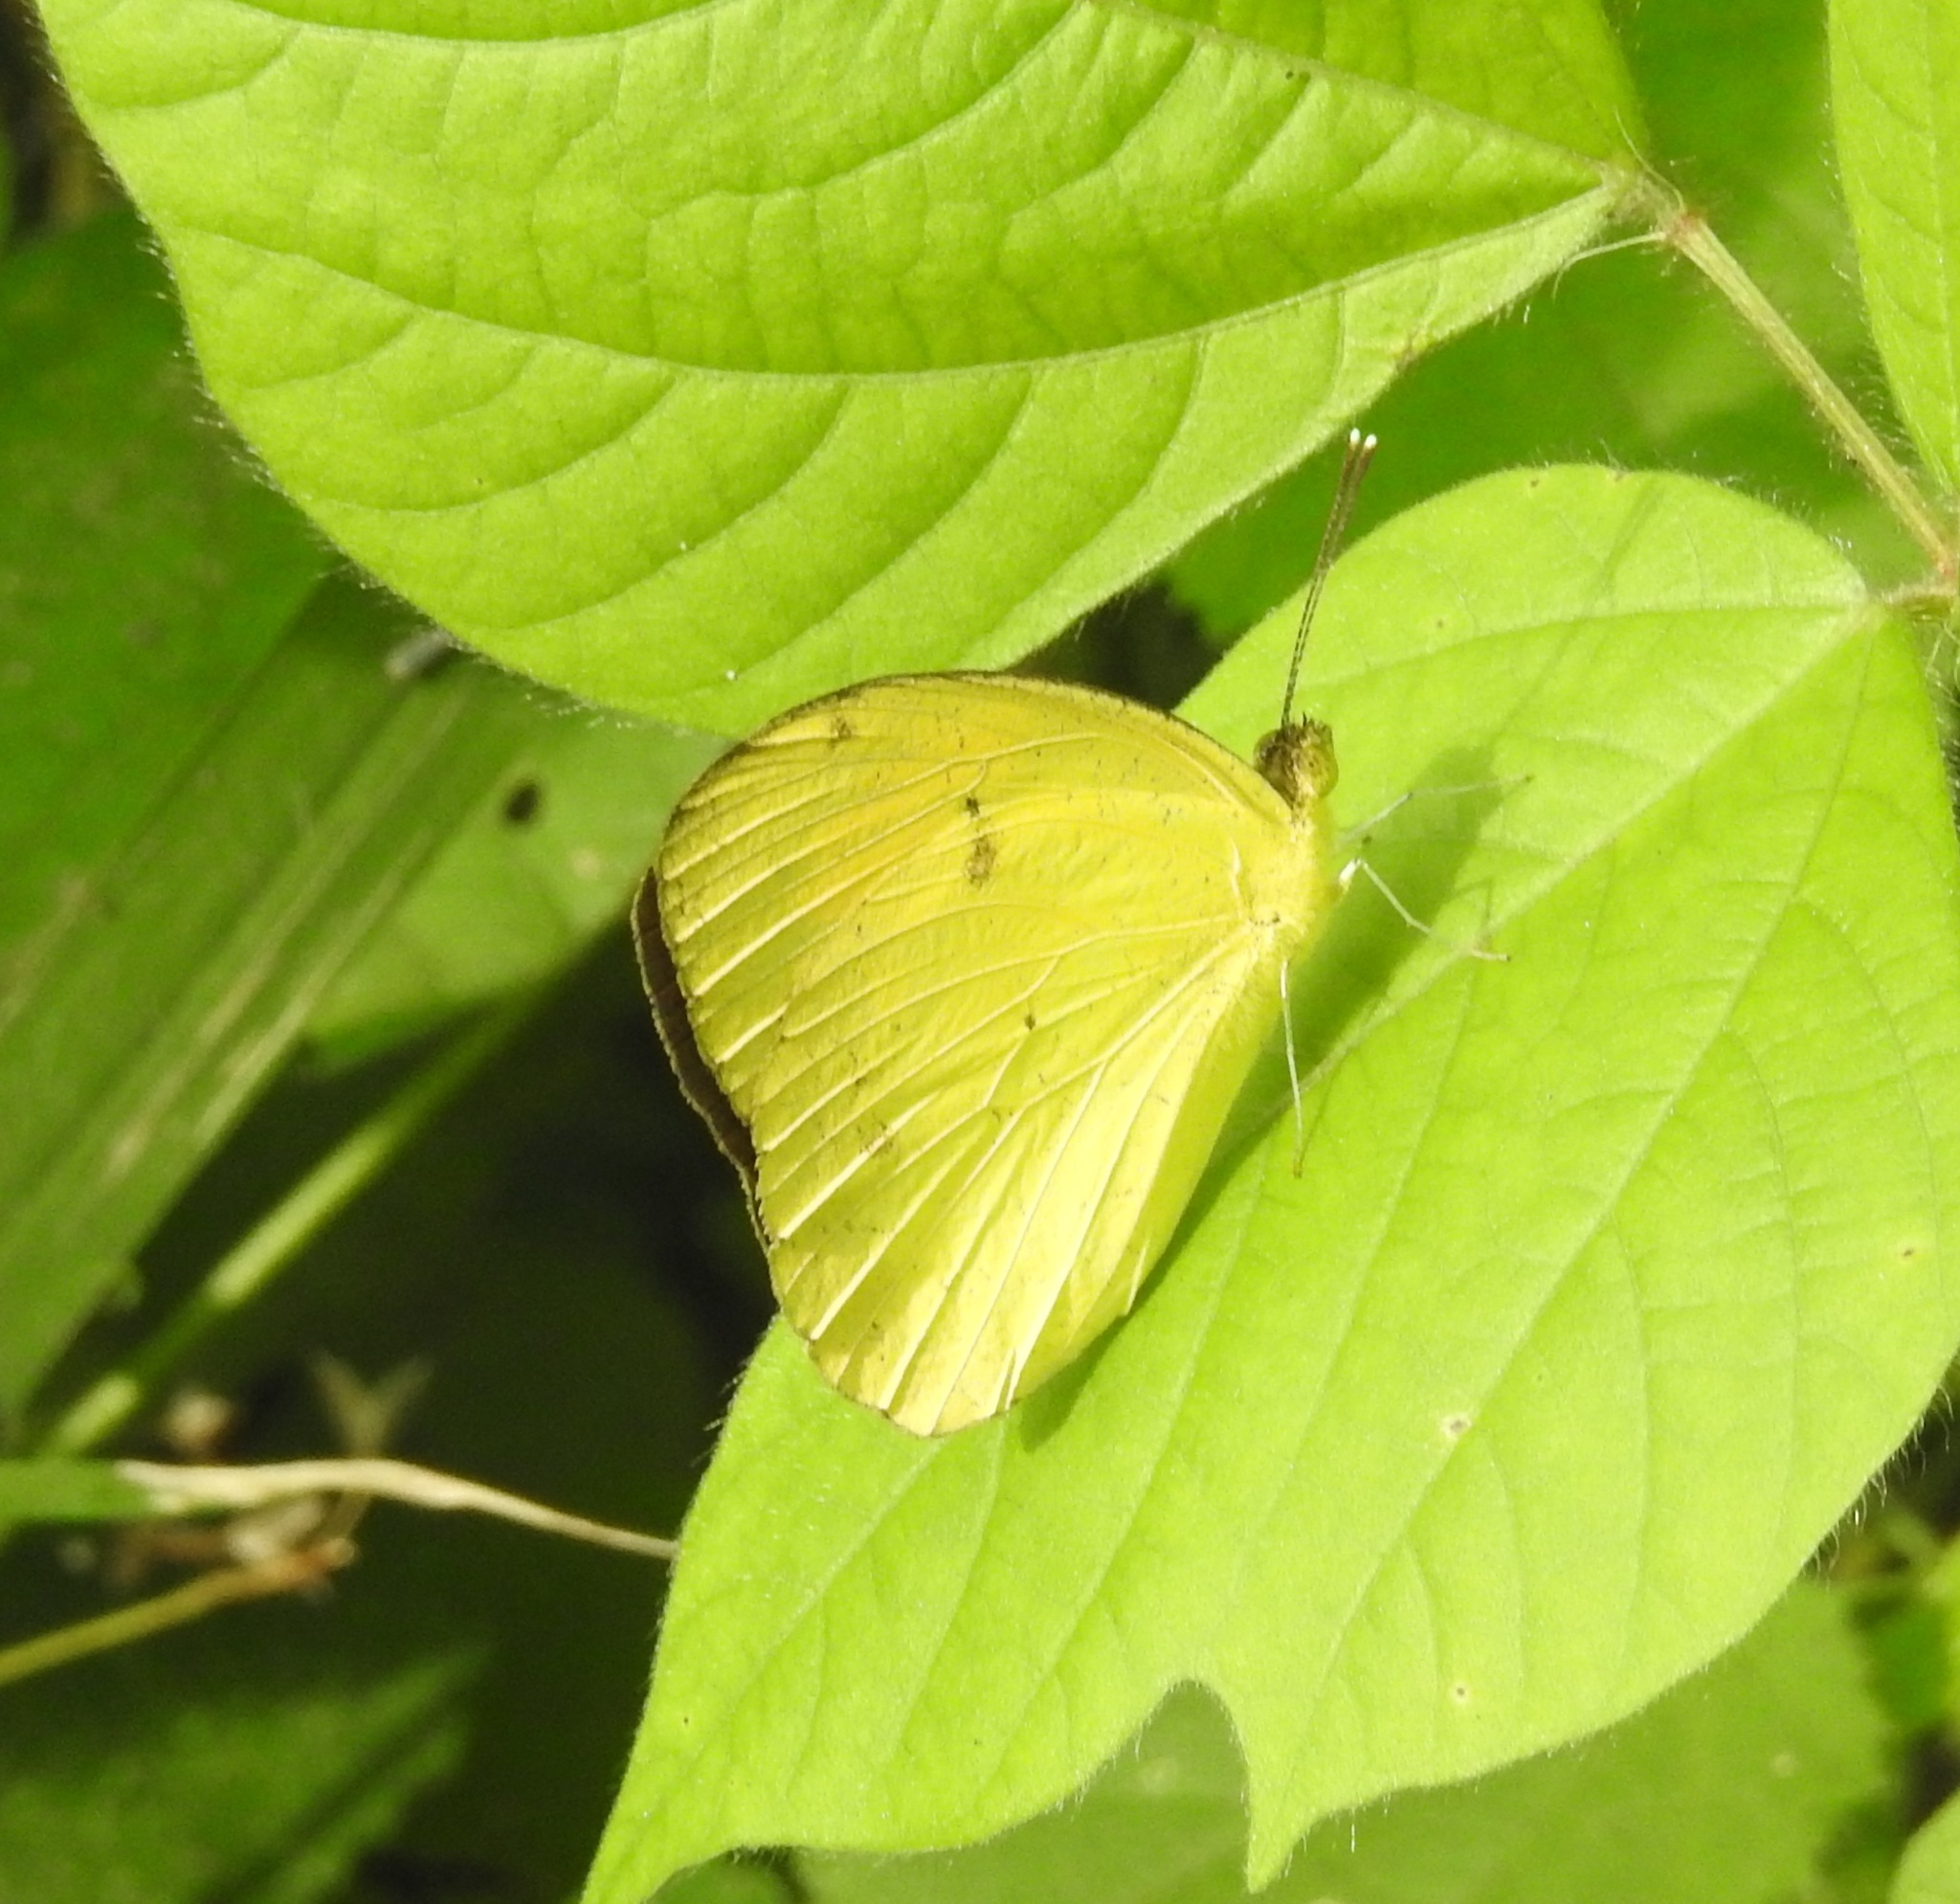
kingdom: Animalia
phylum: Arthropoda
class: Insecta
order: Lepidoptera
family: Pieridae
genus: Ixias
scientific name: Ixias pyrene
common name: Yellow orange tip
